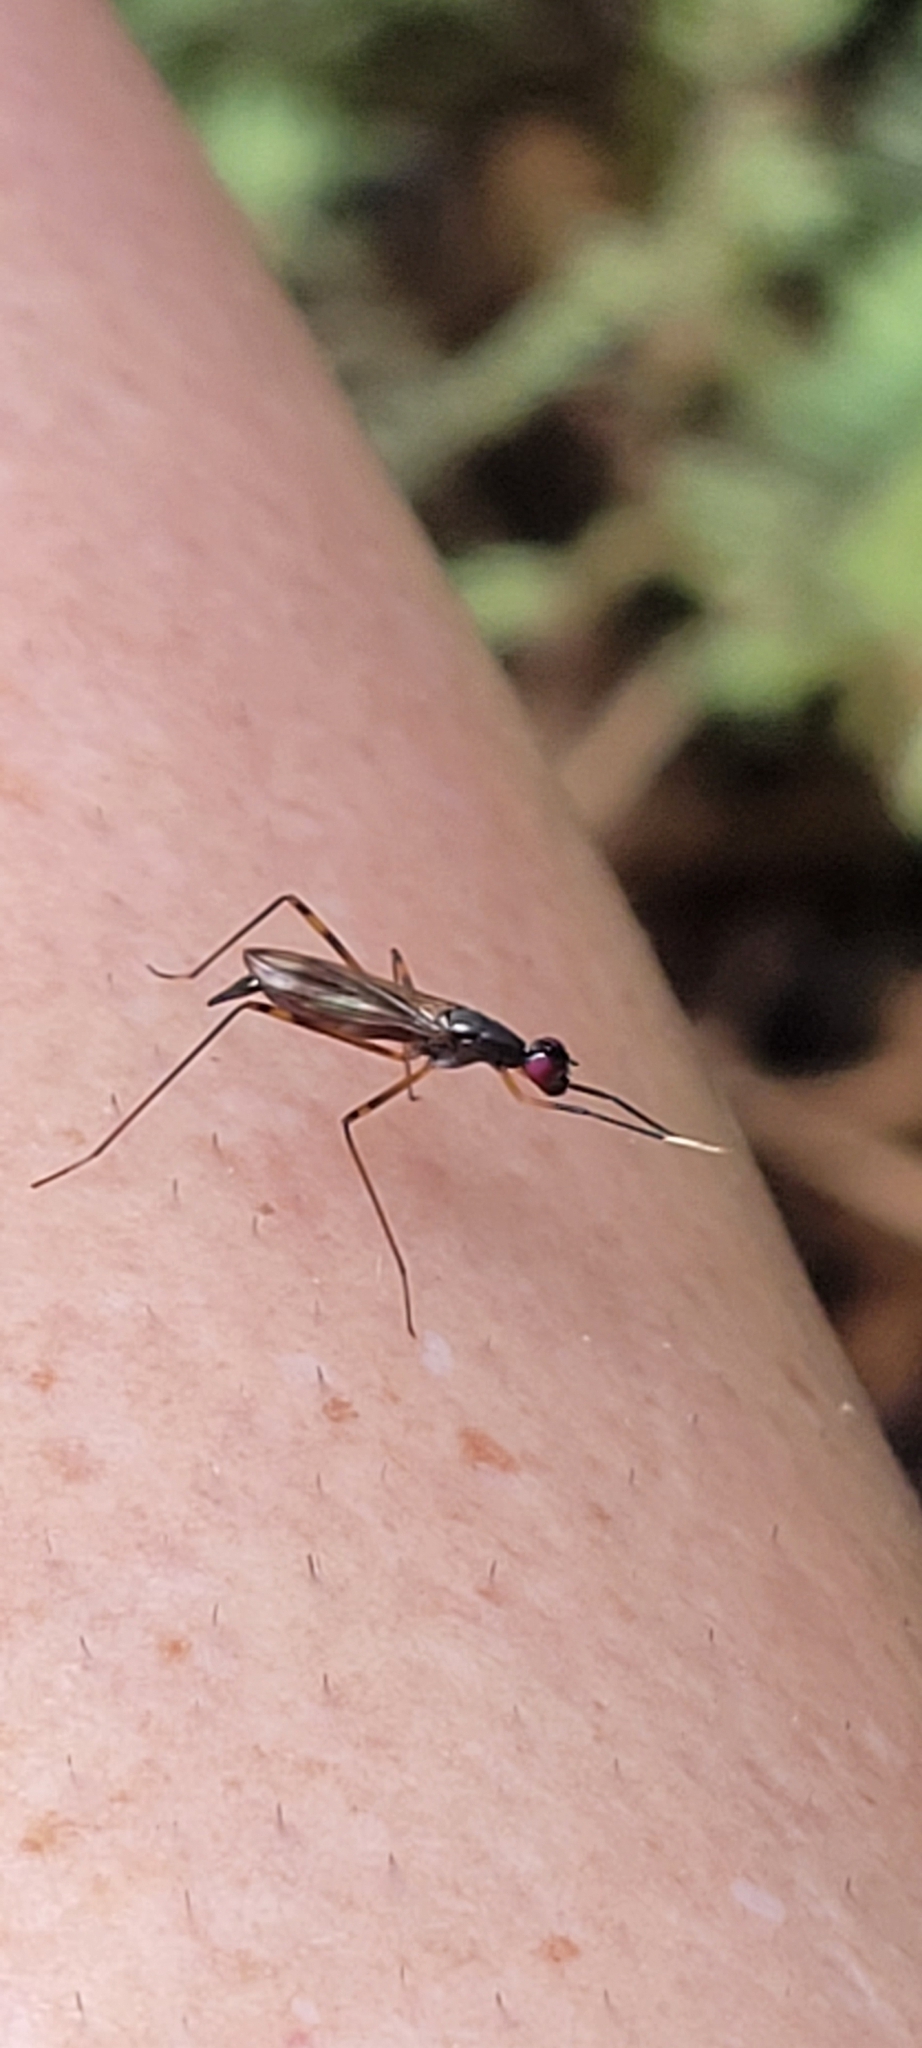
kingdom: Animalia
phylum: Arthropoda
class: Insecta
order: Diptera
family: Micropezidae
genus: Rainieria
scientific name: Rainieria antennaepes
